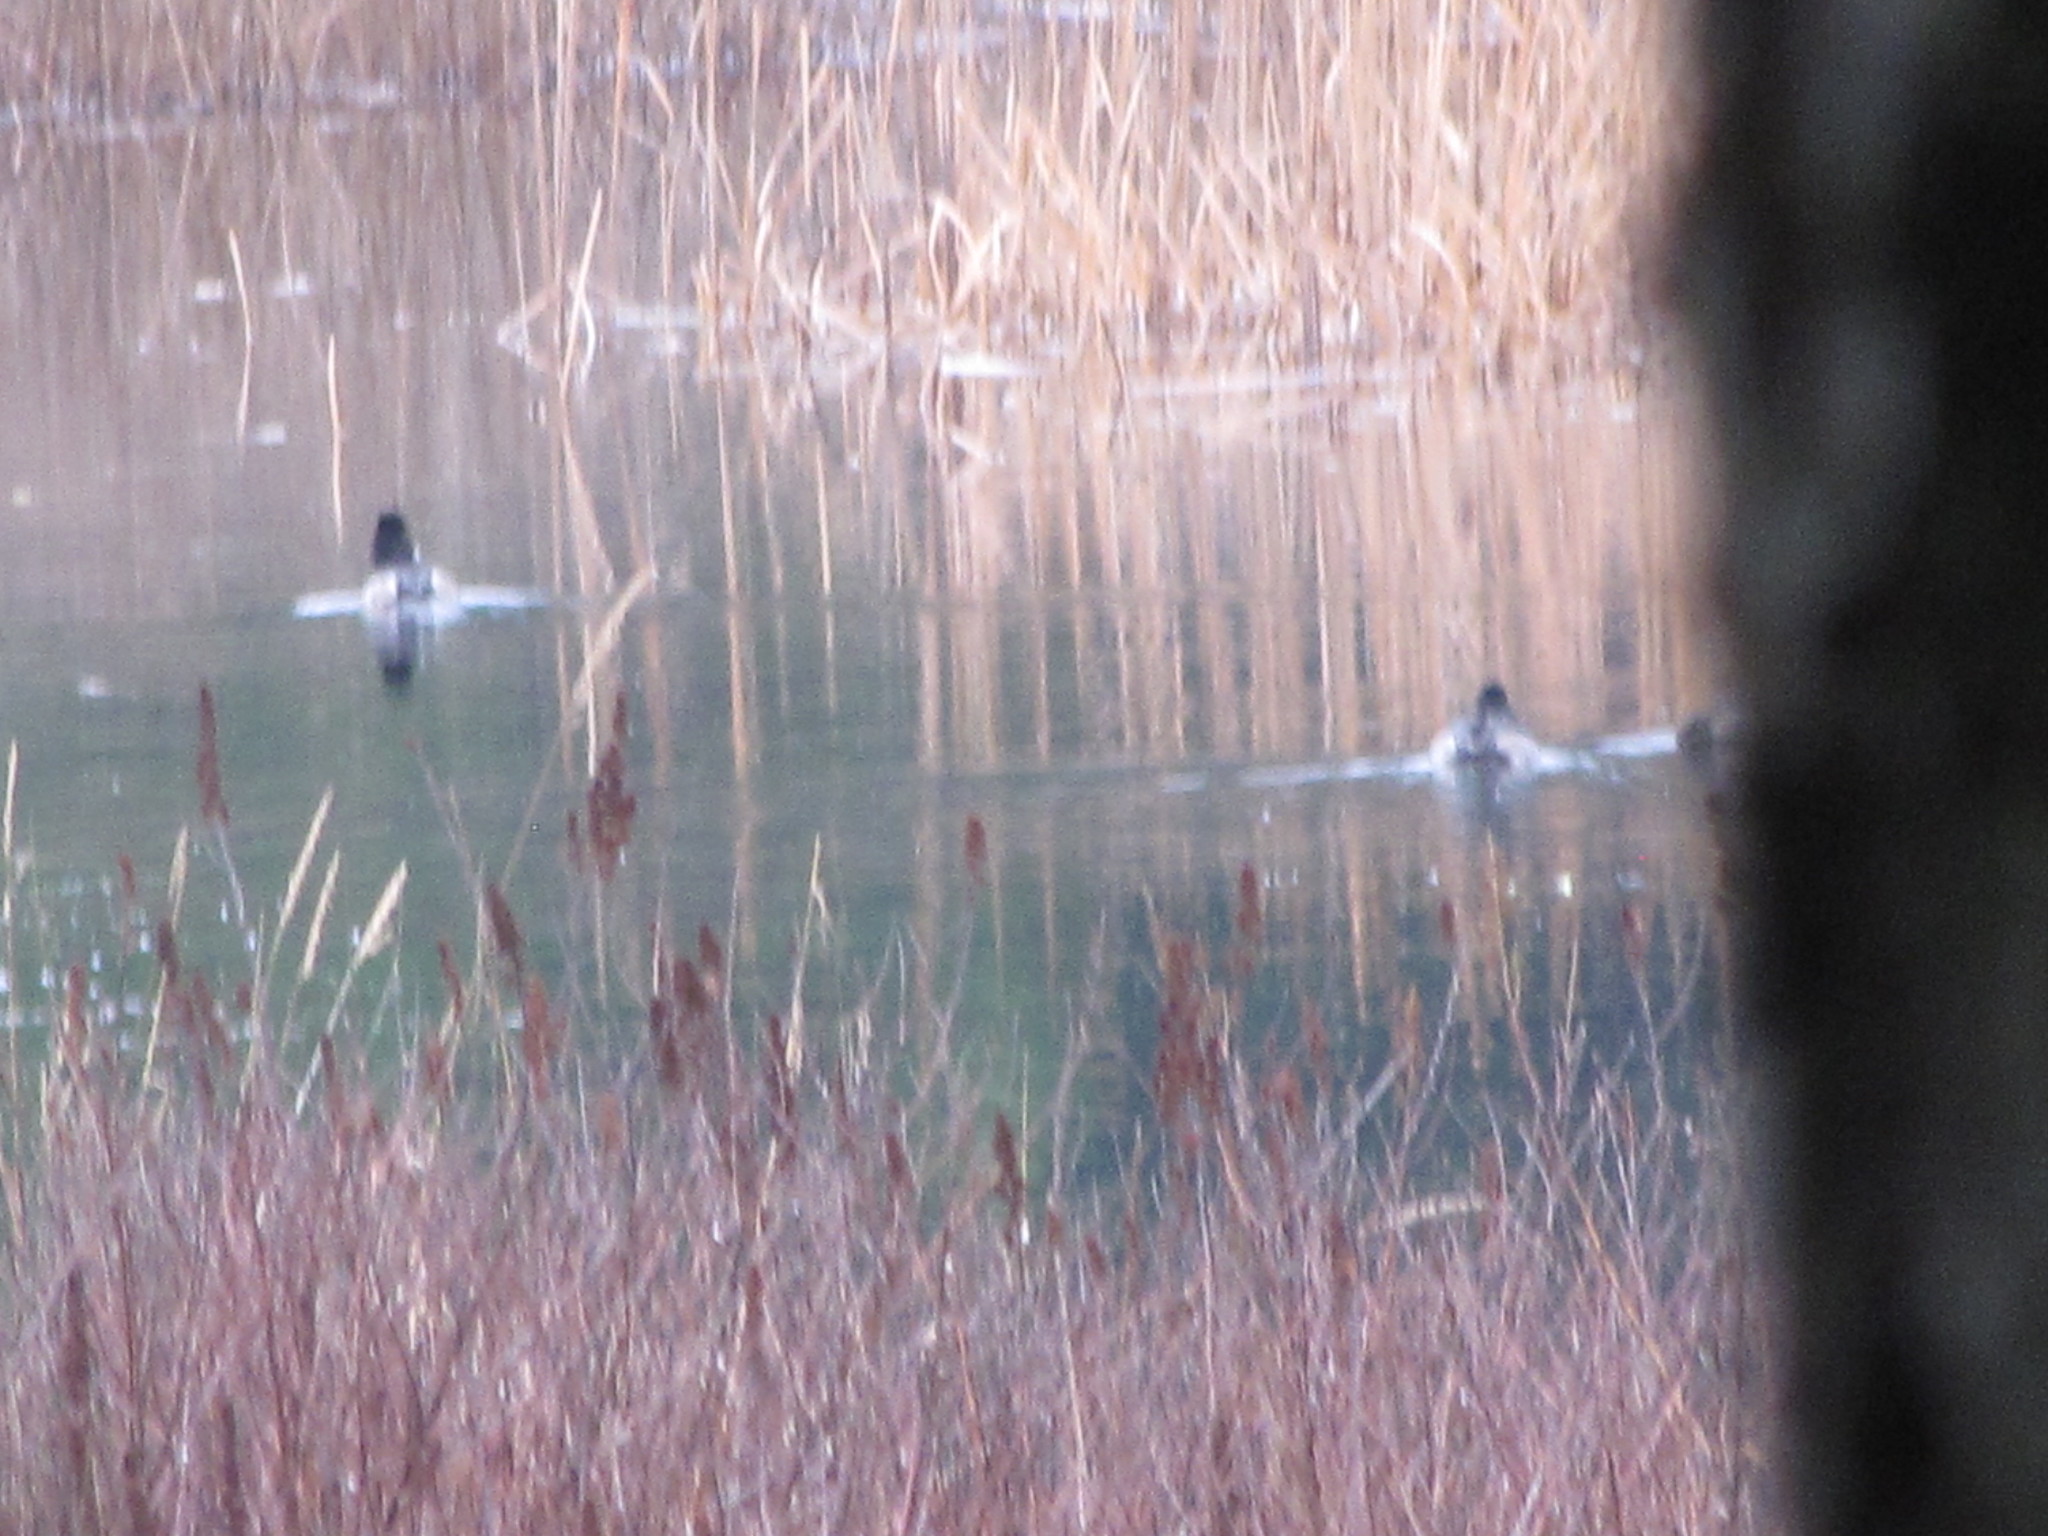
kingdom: Animalia
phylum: Chordata
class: Aves
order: Anseriformes
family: Anatidae
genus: Aythya
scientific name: Aythya collaris
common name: Ring-necked duck
